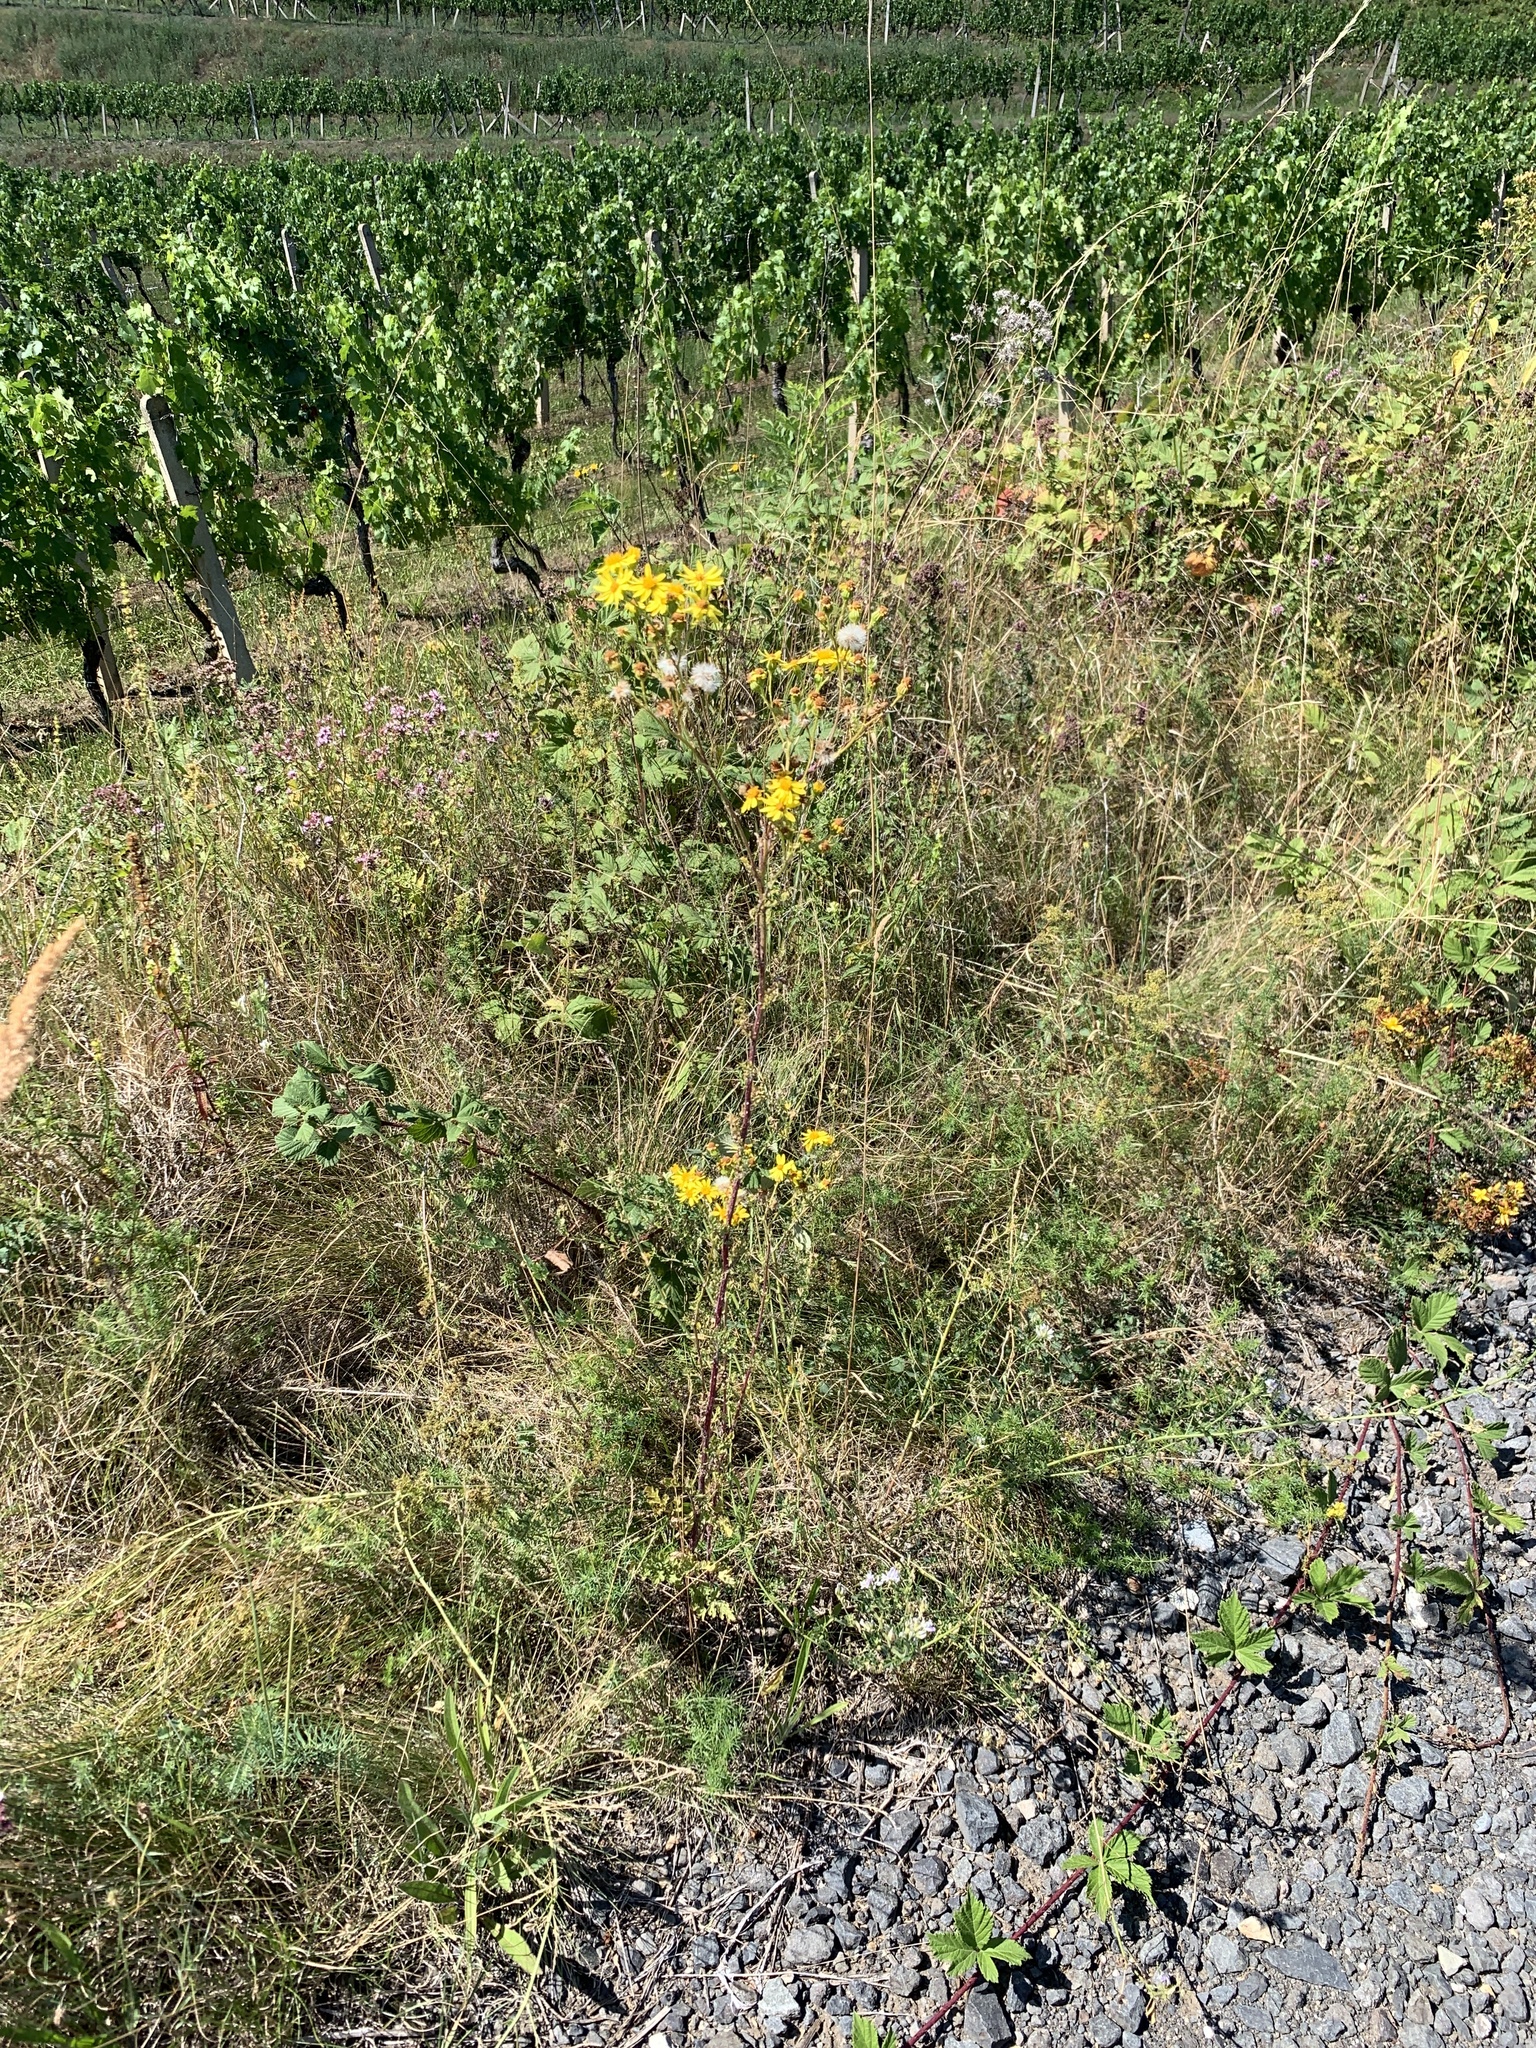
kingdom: Plantae
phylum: Tracheophyta
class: Magnoliopsida
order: Asterales
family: Asteraceae
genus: Jacobaea
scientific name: Jacobaea vulgaris
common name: Stinking willie
